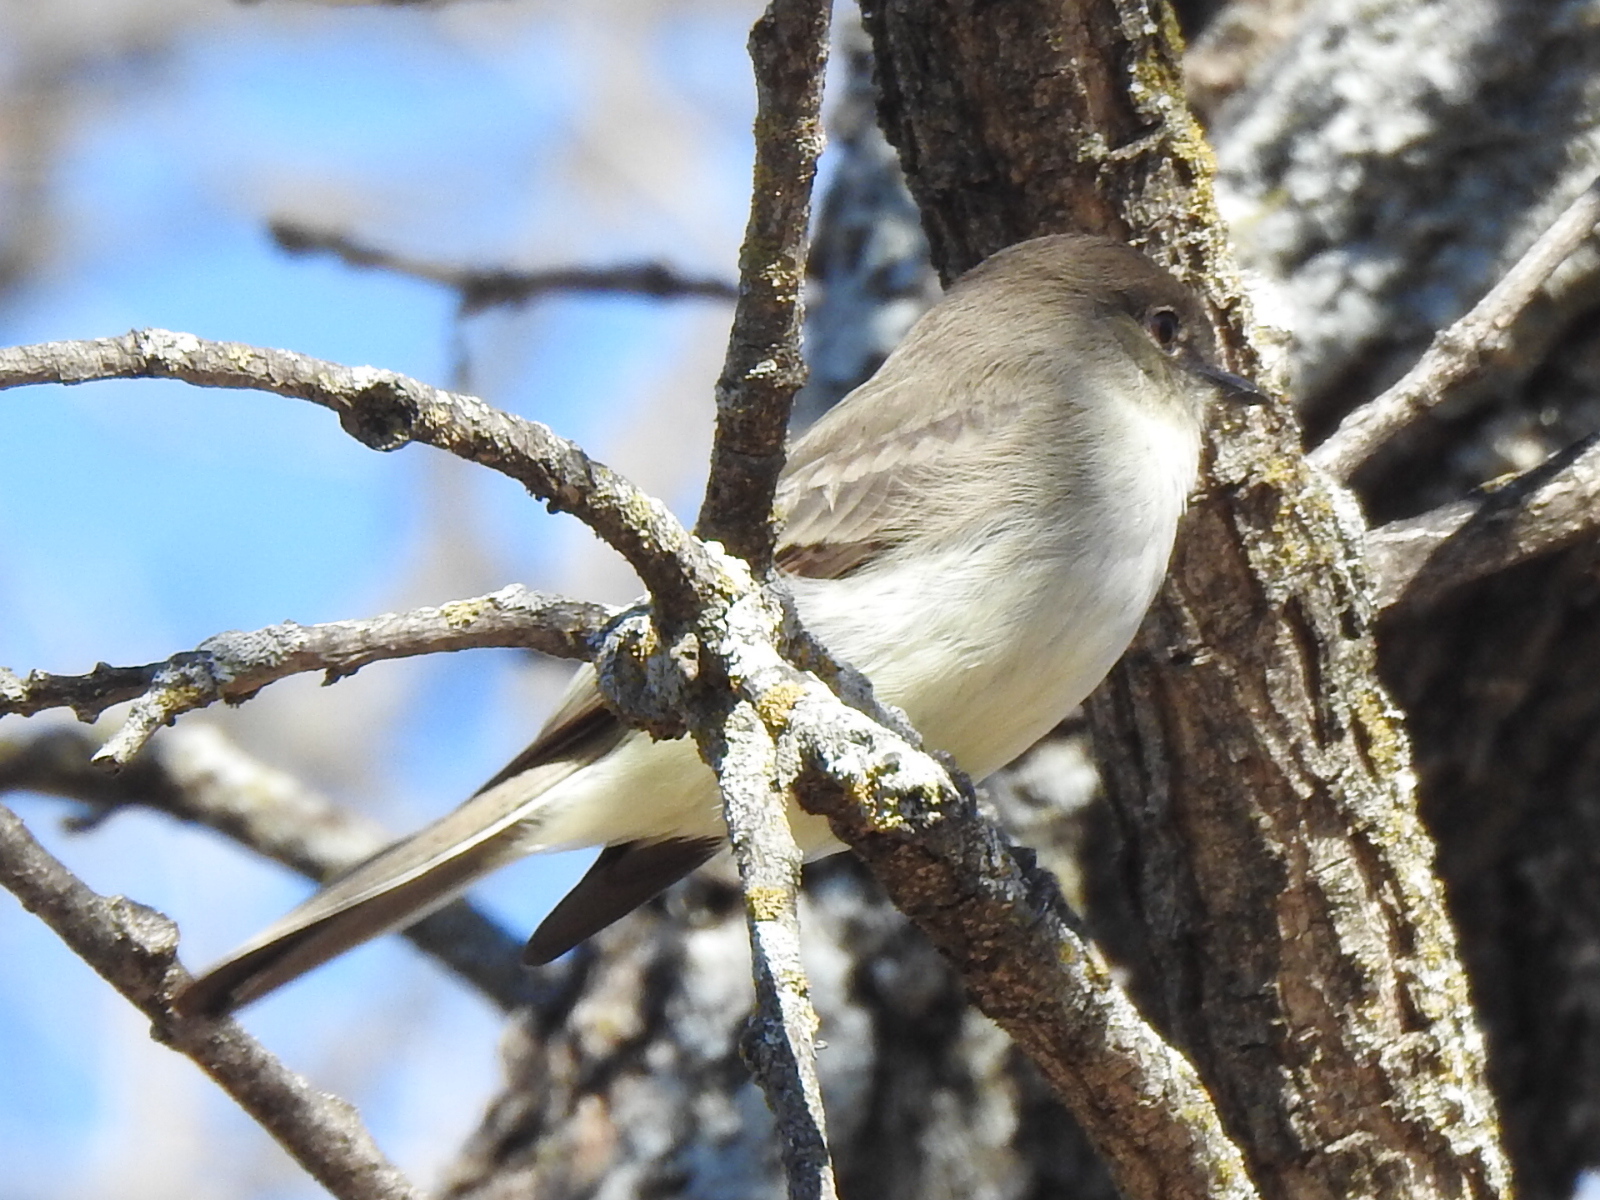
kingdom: Animalia
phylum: Chordata
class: Aves
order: Passeriformes
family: Tyrannidae
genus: Sayornis
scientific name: Sayornis phoebe
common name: Eastern phoebe
